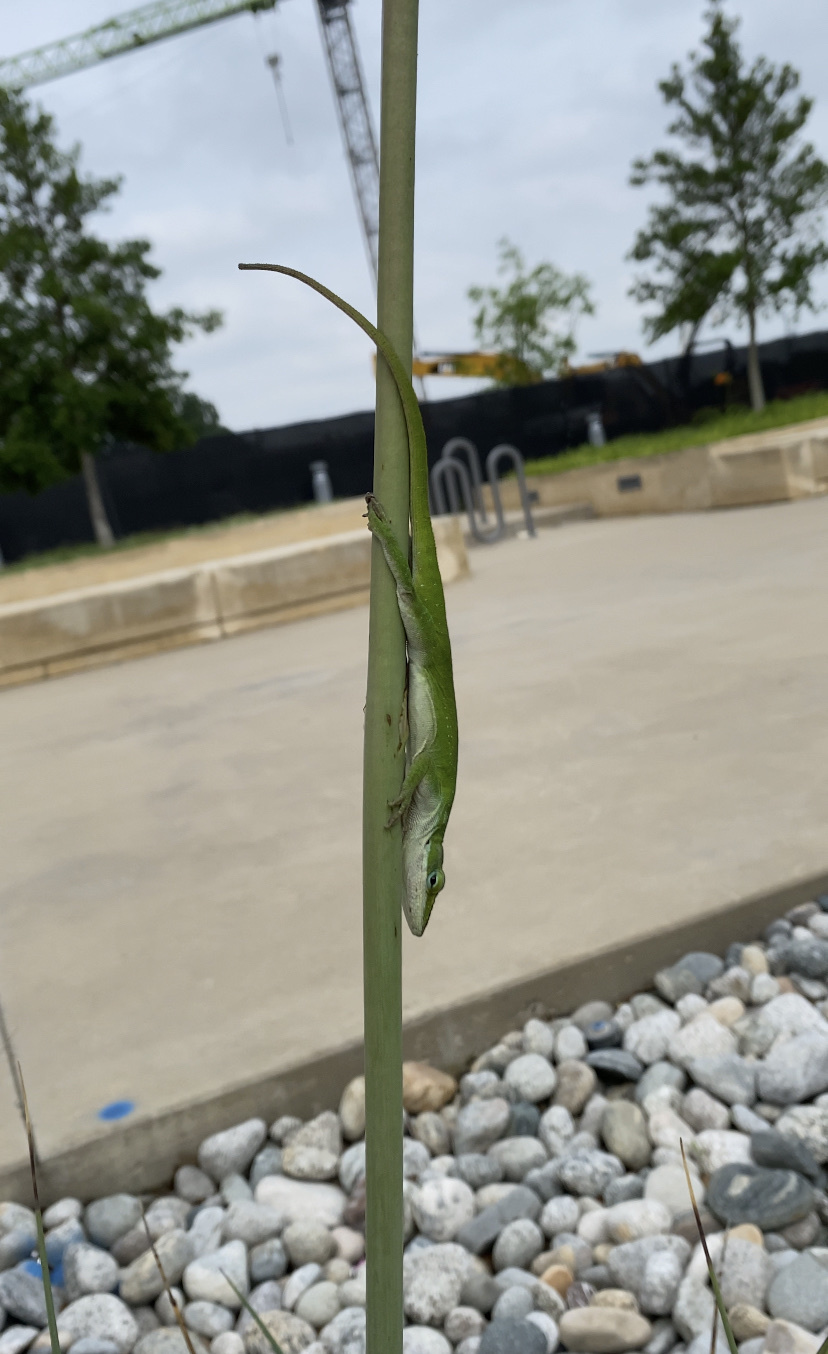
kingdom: Animalia
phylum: Chordata
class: Squamata
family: Dactyloidae
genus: Anolis
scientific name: Anolis carolinensis
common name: Green anole
